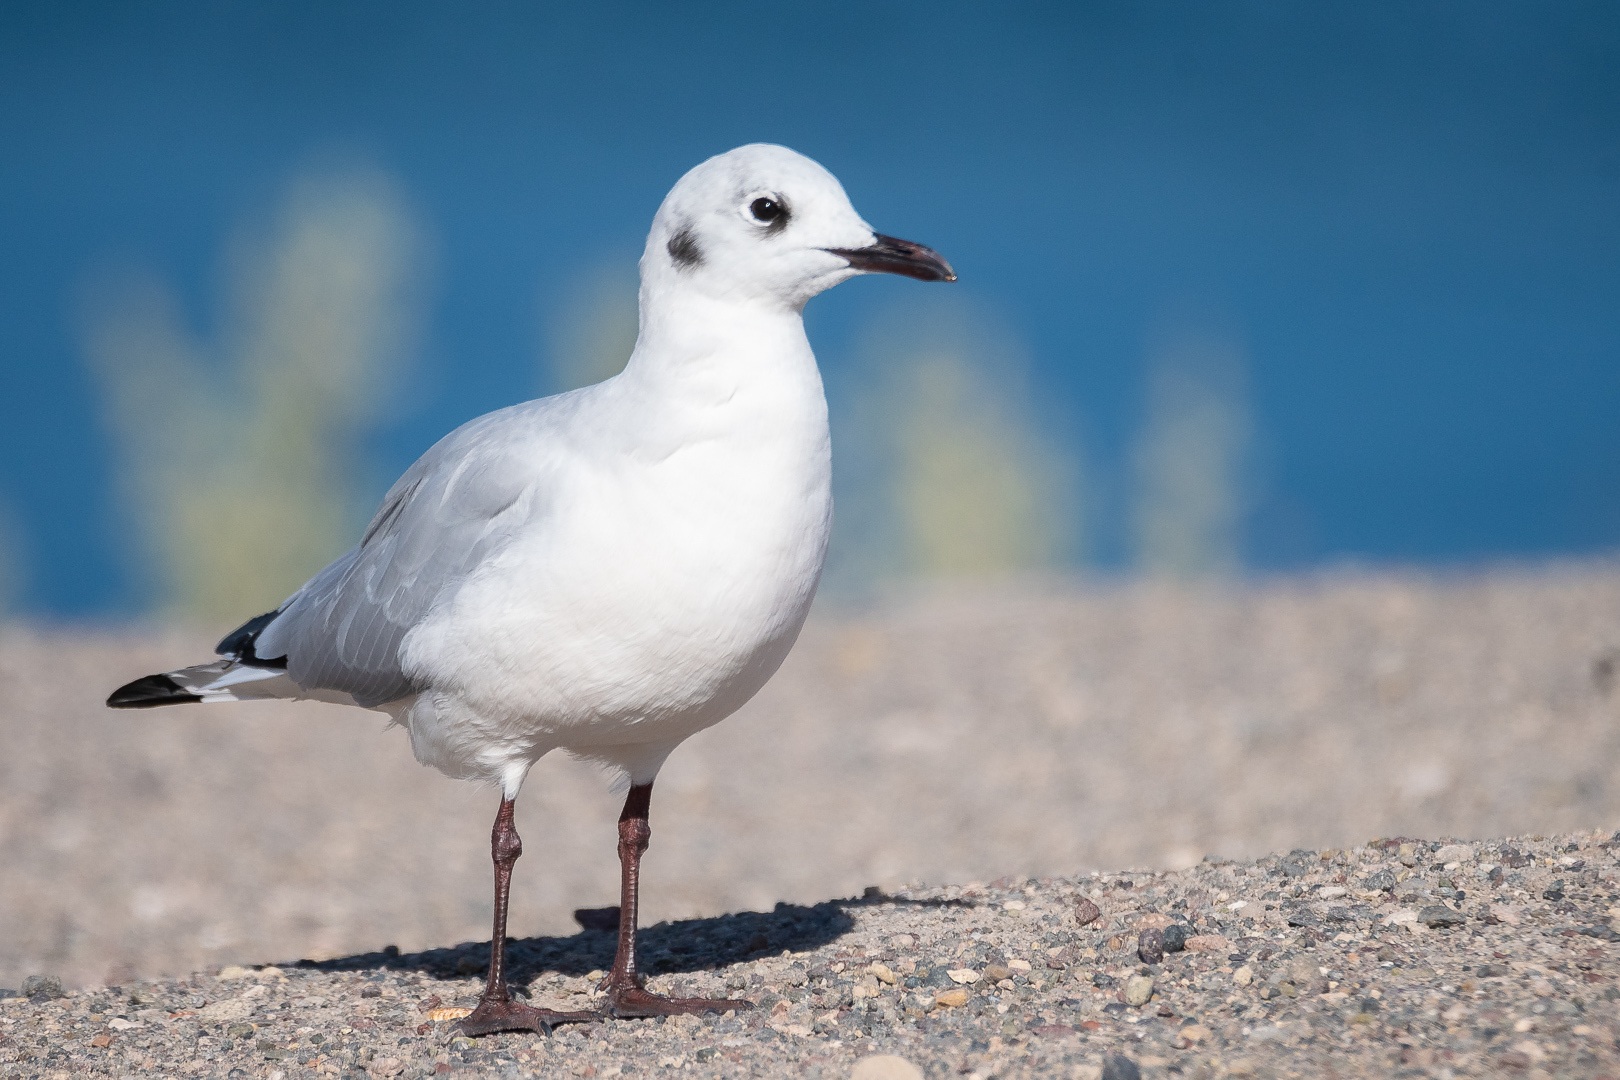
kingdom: Animalia
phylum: Chordata
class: Aves
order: Charadriiformes
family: Laridae
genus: Chroicocephalus
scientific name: Chroicocephalus serranus
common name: Andean gull
